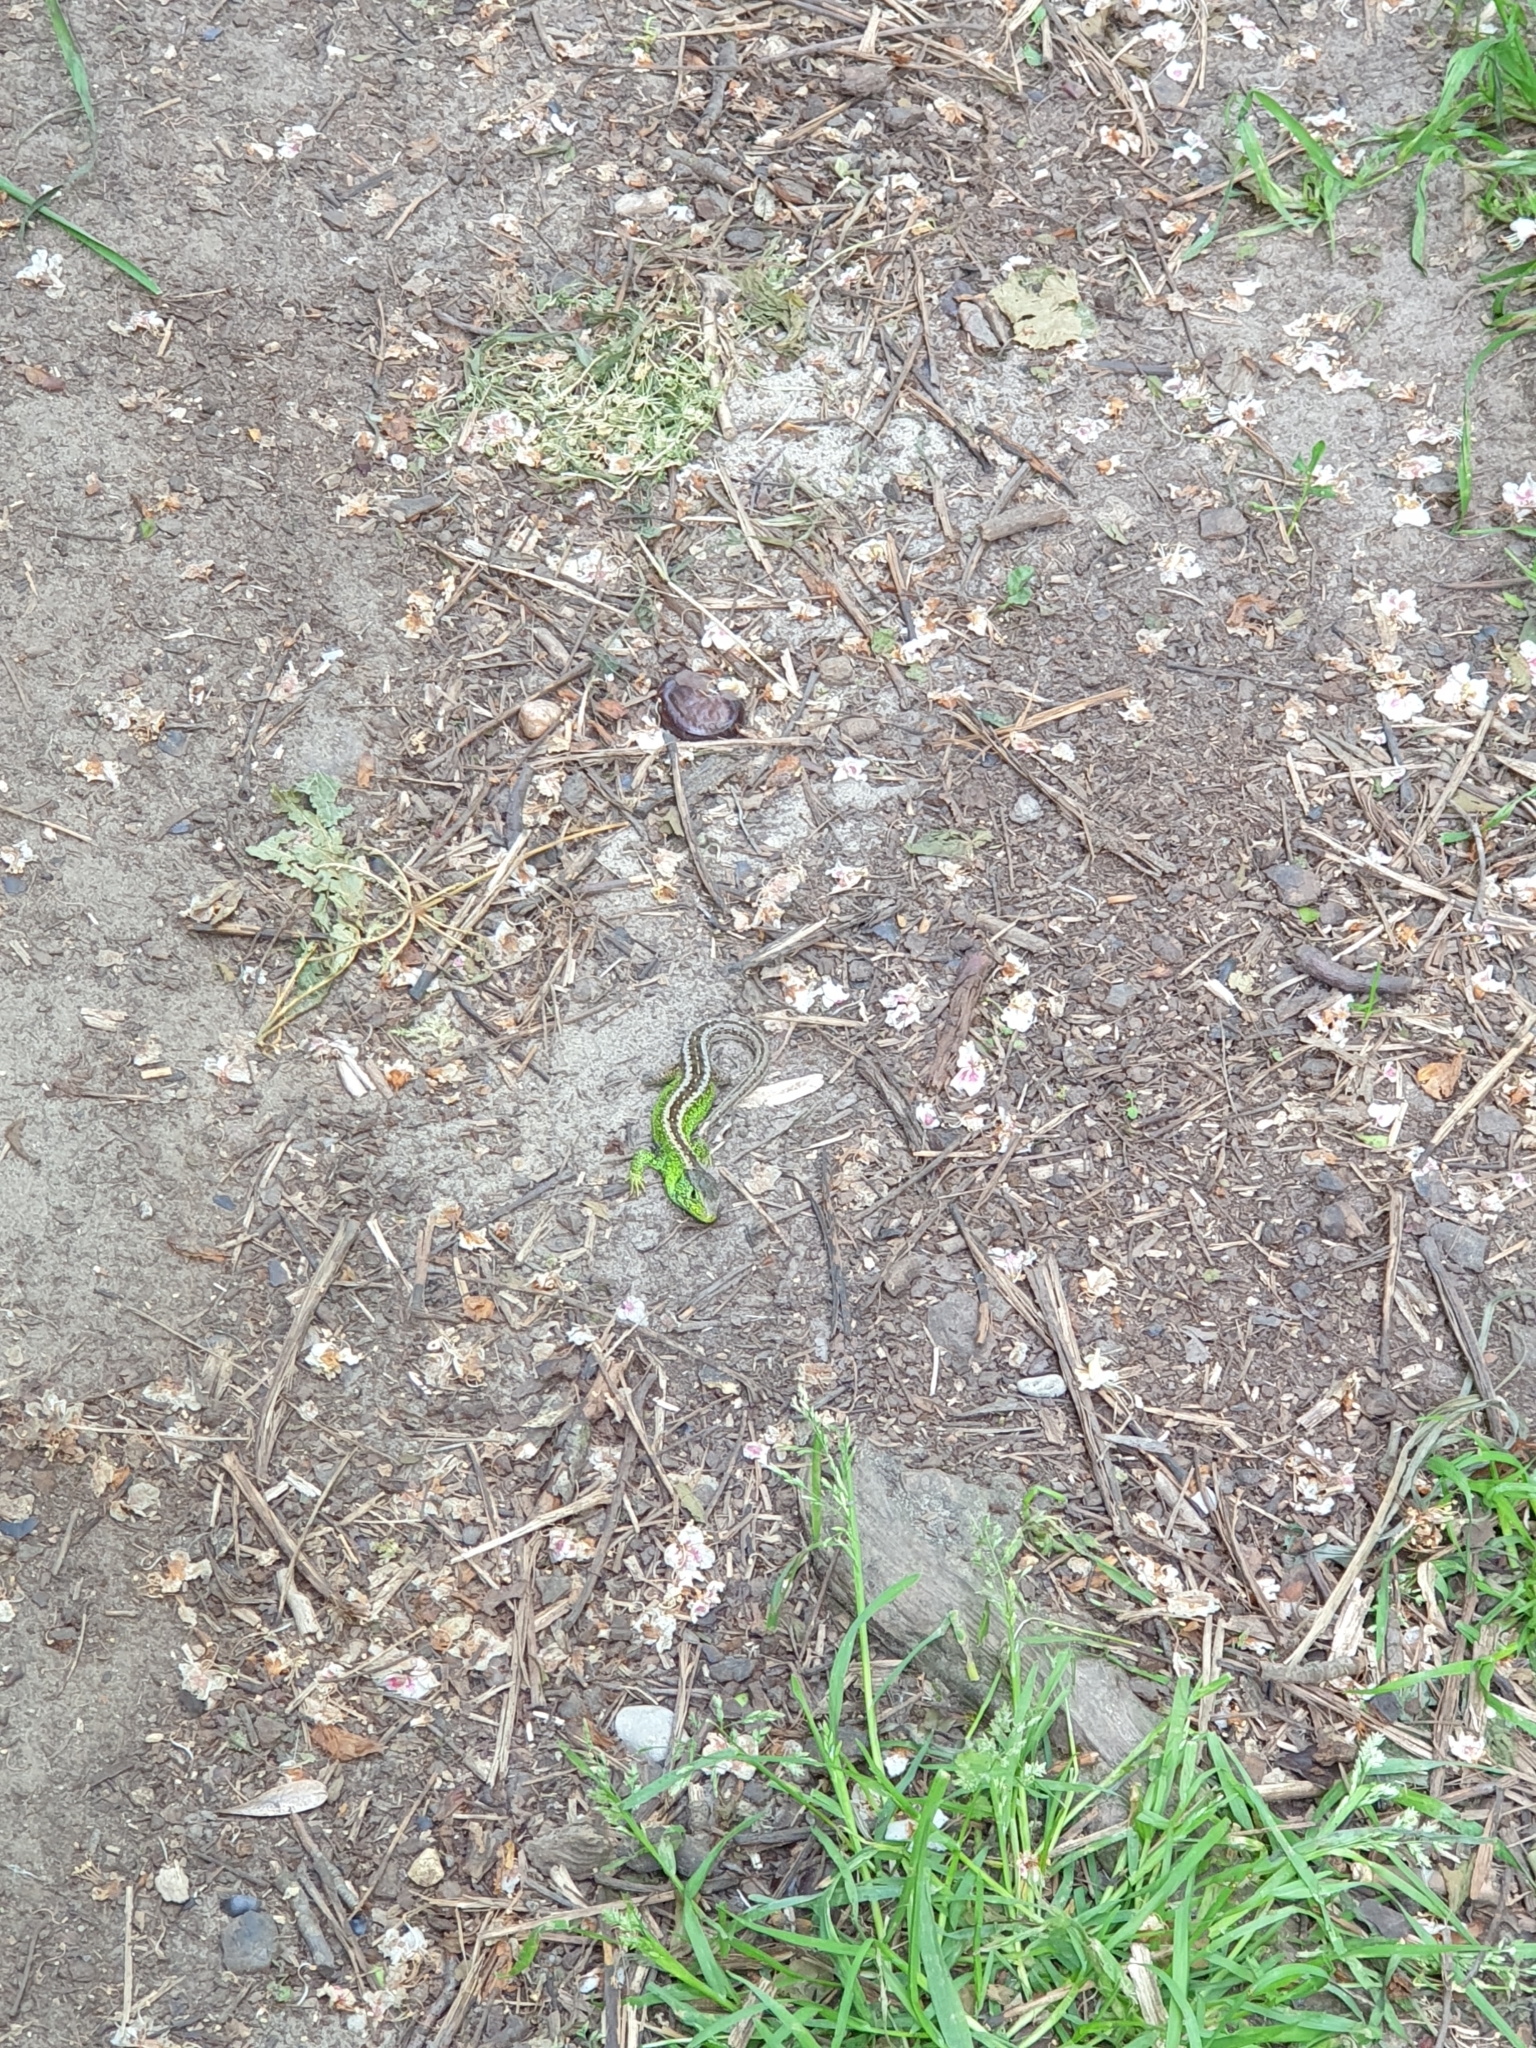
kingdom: Animalia
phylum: Chordata
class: Squamata
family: Lacertidae
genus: Lacerta
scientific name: Lacerta agilis
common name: Sand lizard
